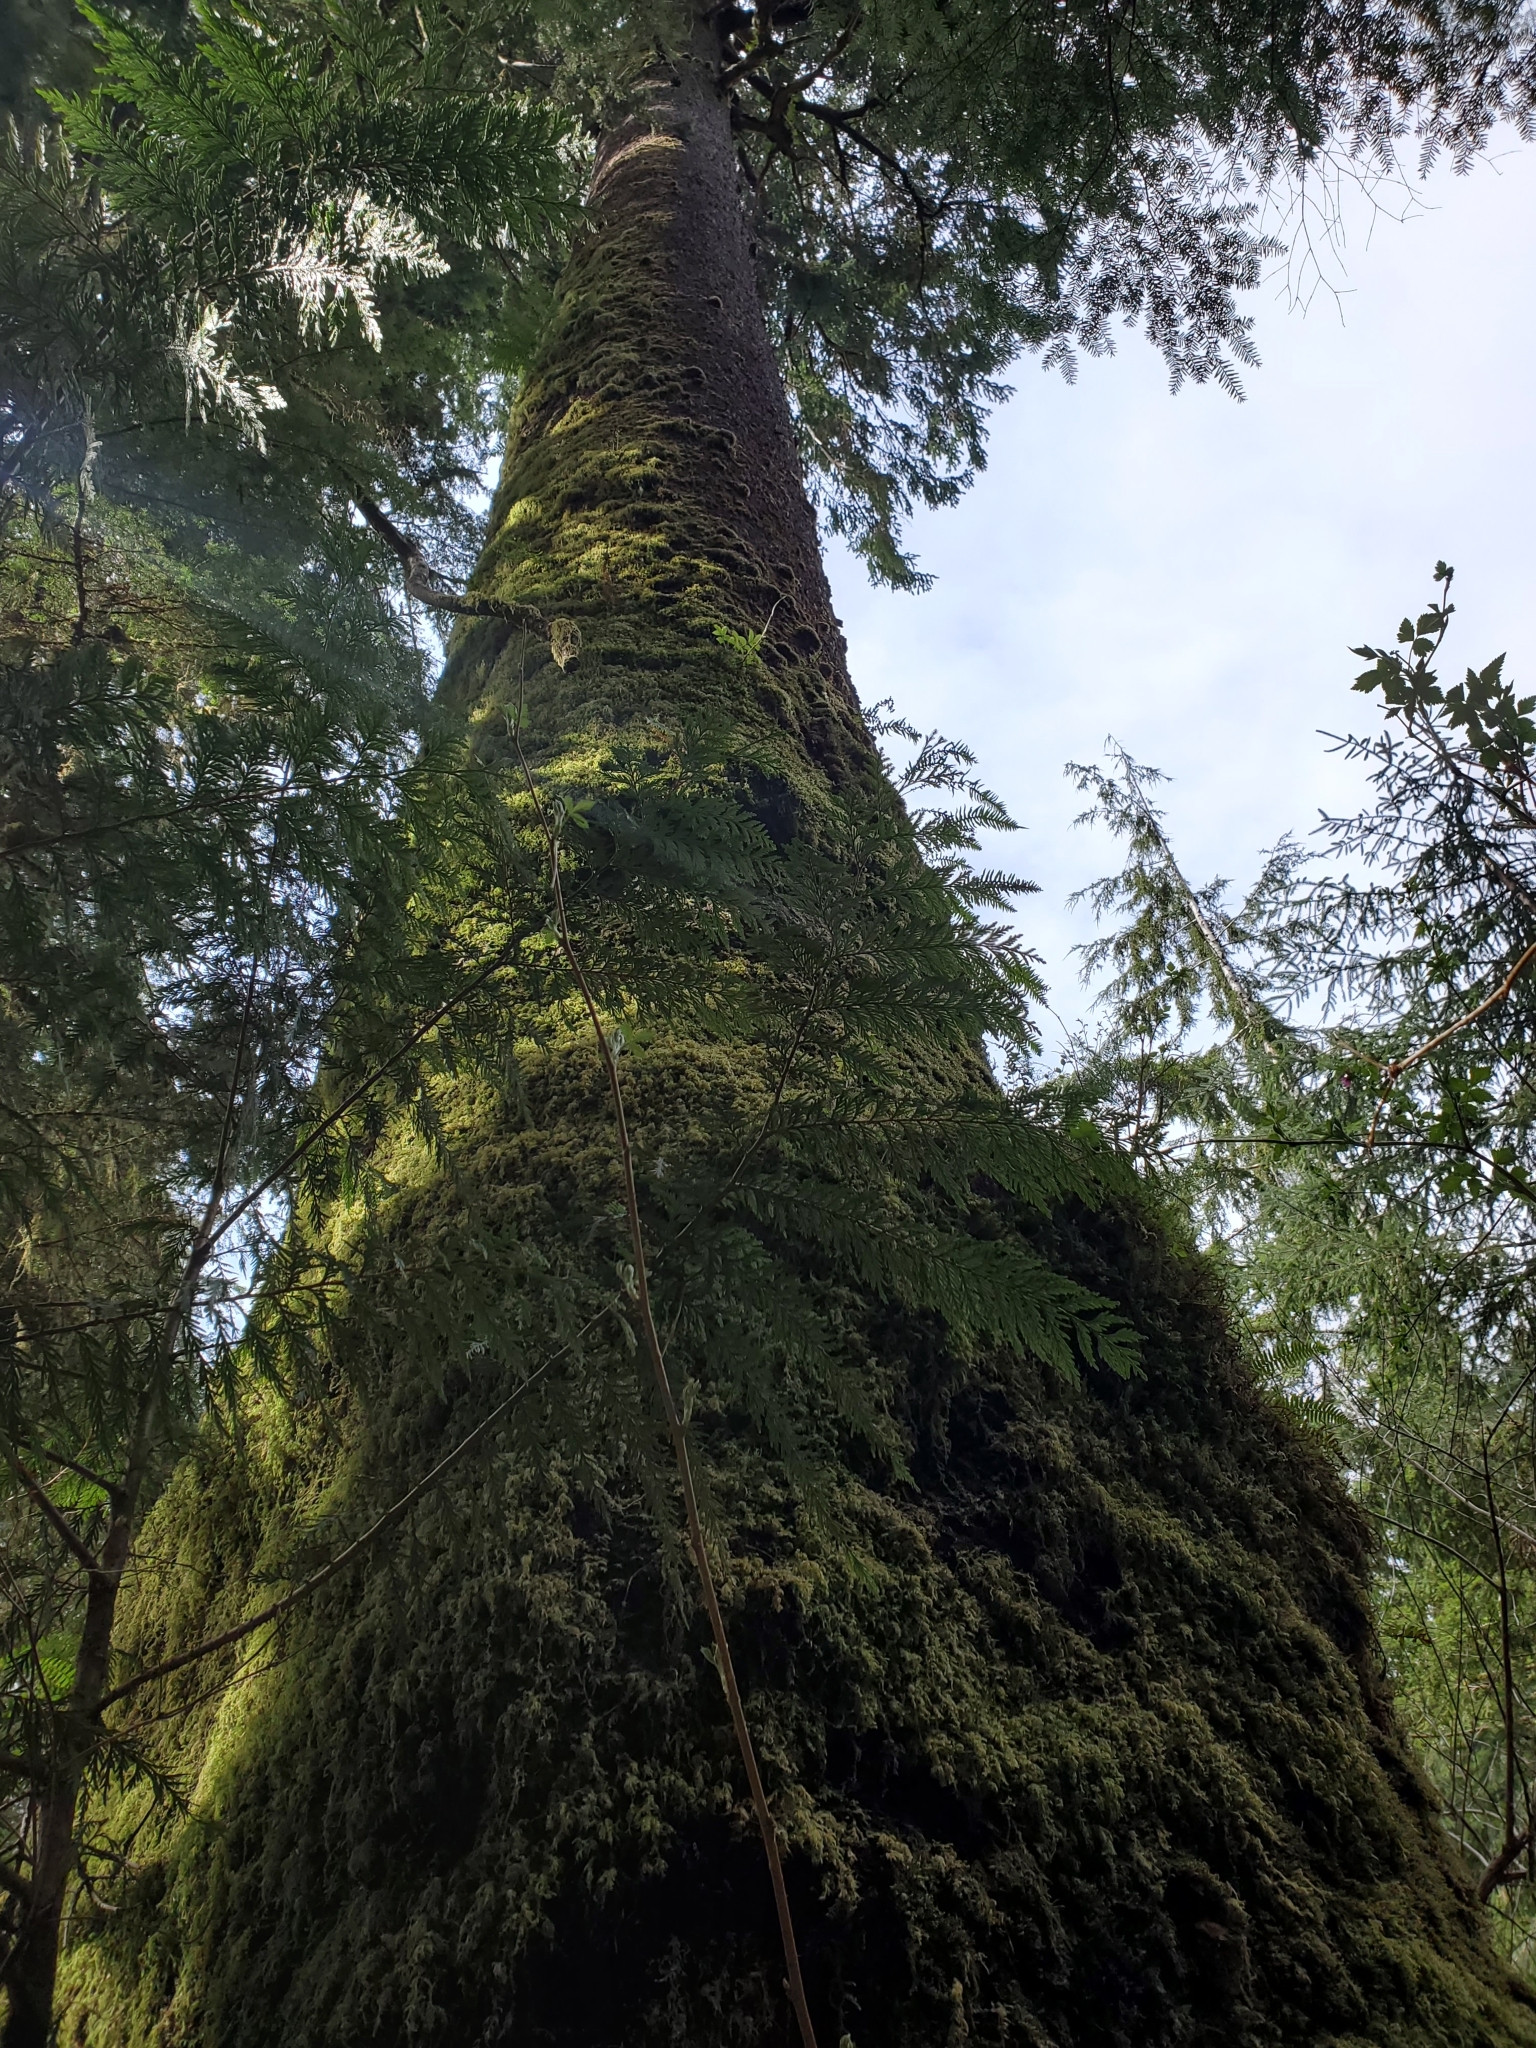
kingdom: Plantae
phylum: Tracheophyta
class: Pinopsida
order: Pinales
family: Pinaceae
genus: Picea
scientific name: Picea sitchensis
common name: Sitka spruce
